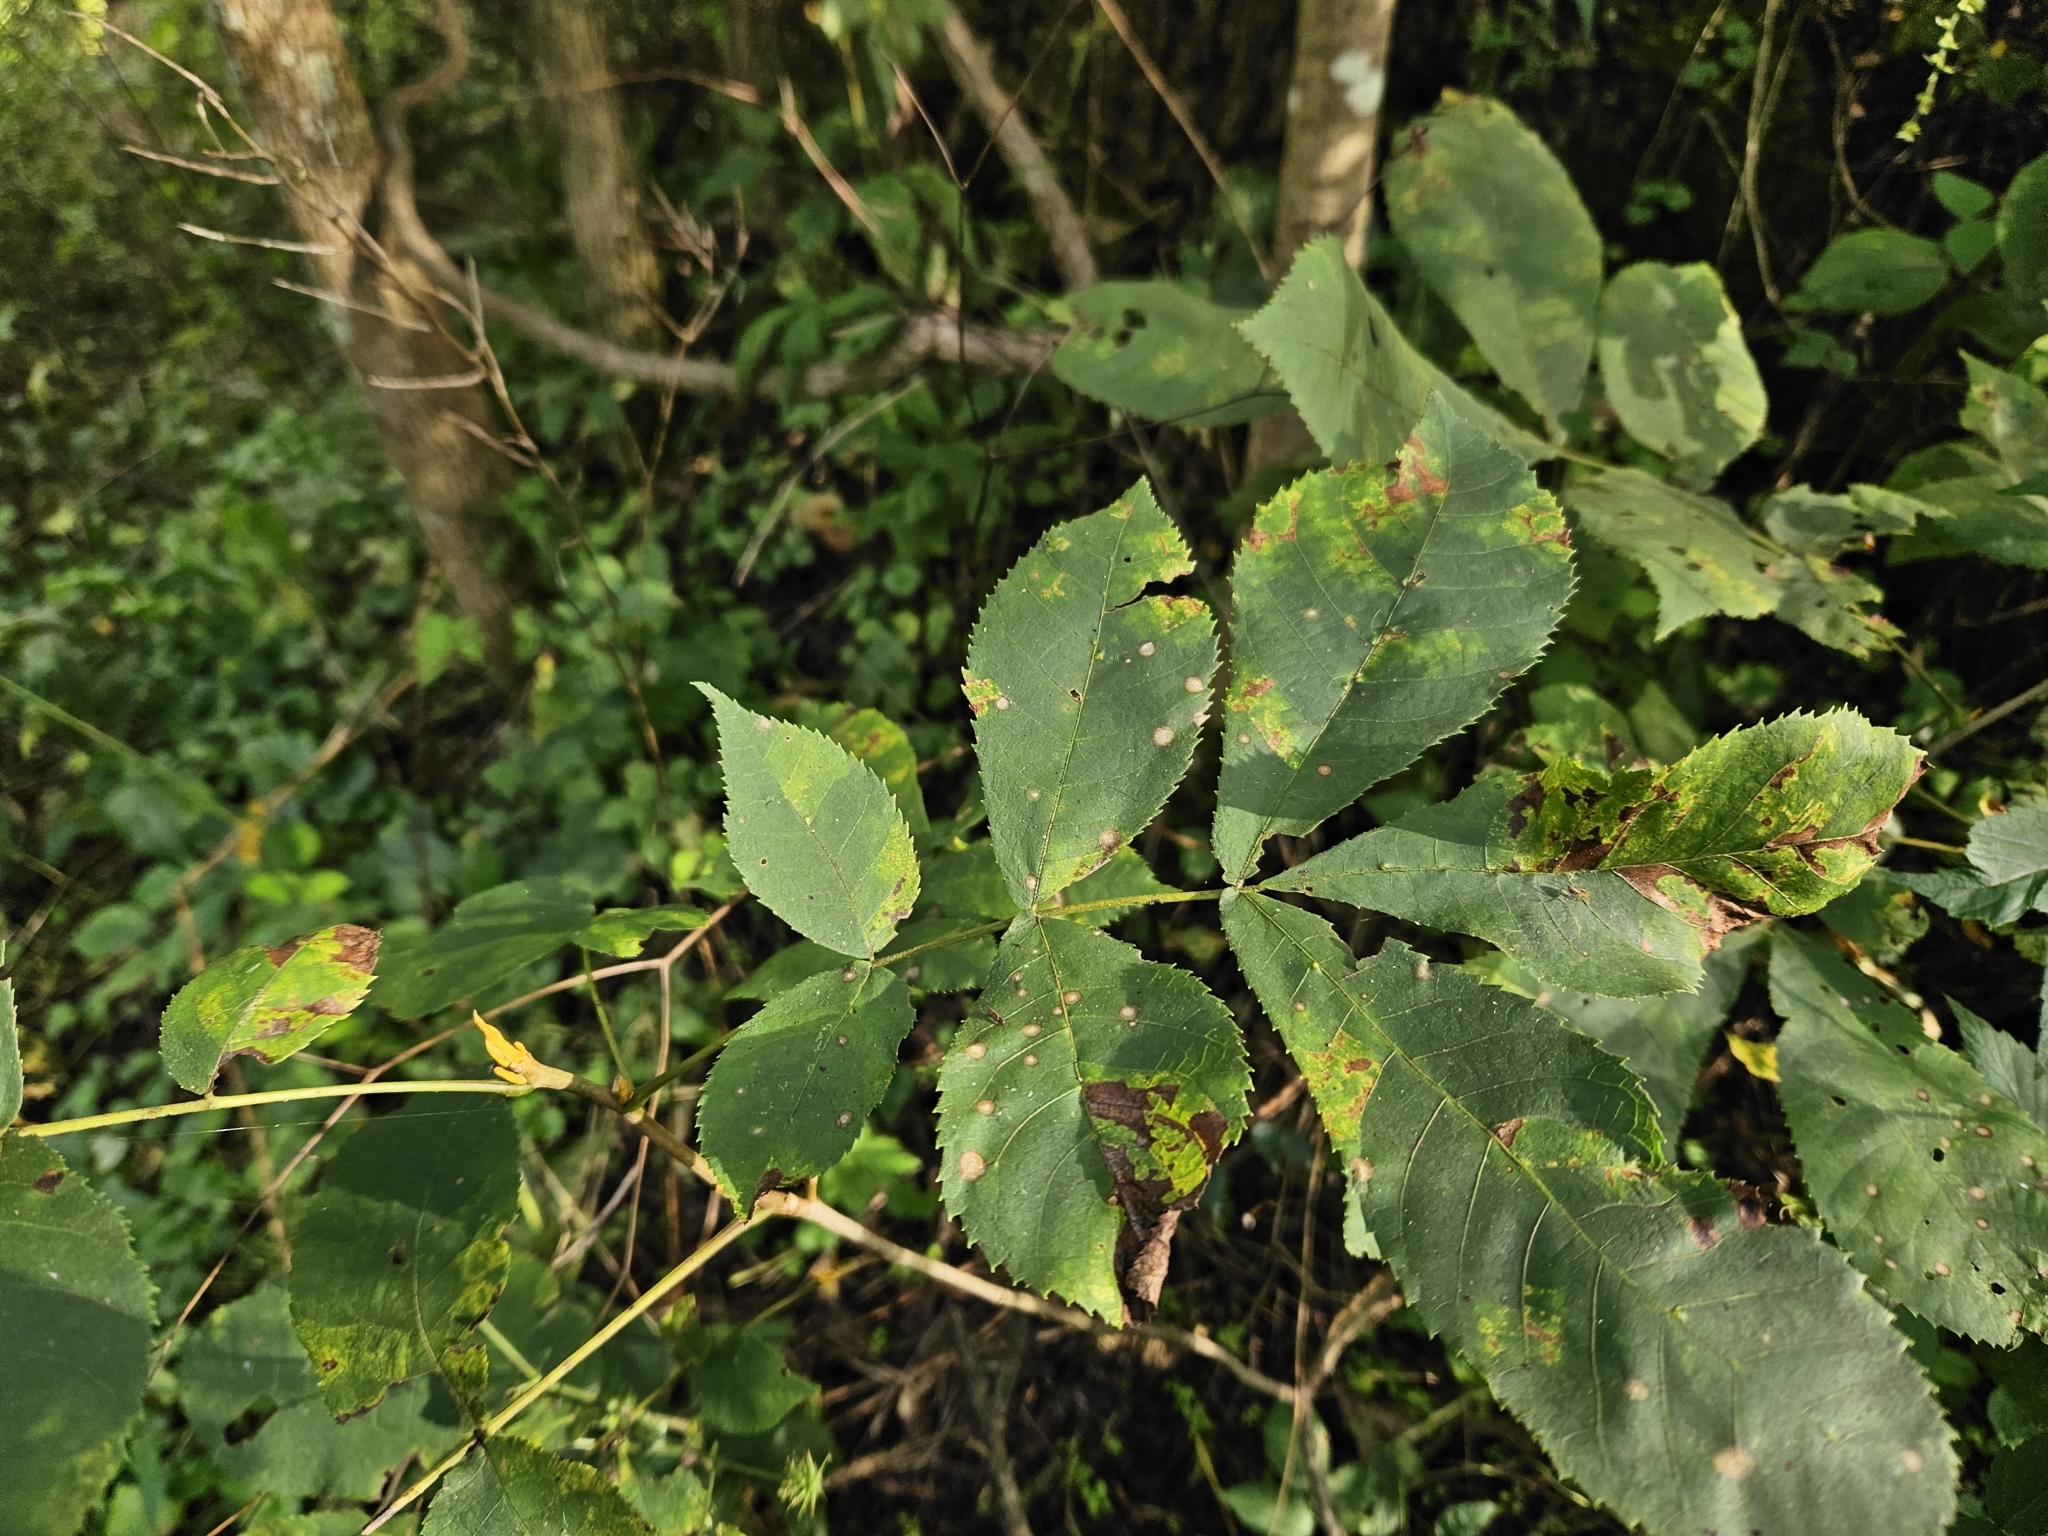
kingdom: Plantae
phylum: Tracheophyta
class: Magnoliopsida
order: Fagales
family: Juglandaceae
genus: Carya
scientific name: Carya cordiformis
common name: Bitternut hickory
